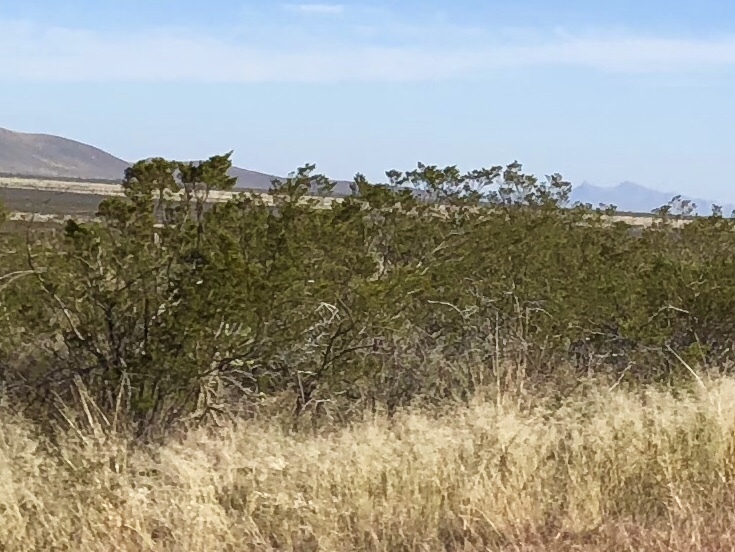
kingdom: Plantae
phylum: Tracheophyta
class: Magnoliopsida
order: Zygophyllales
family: Zygophyllaceae
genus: Larrea
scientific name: Larrea tridentata
